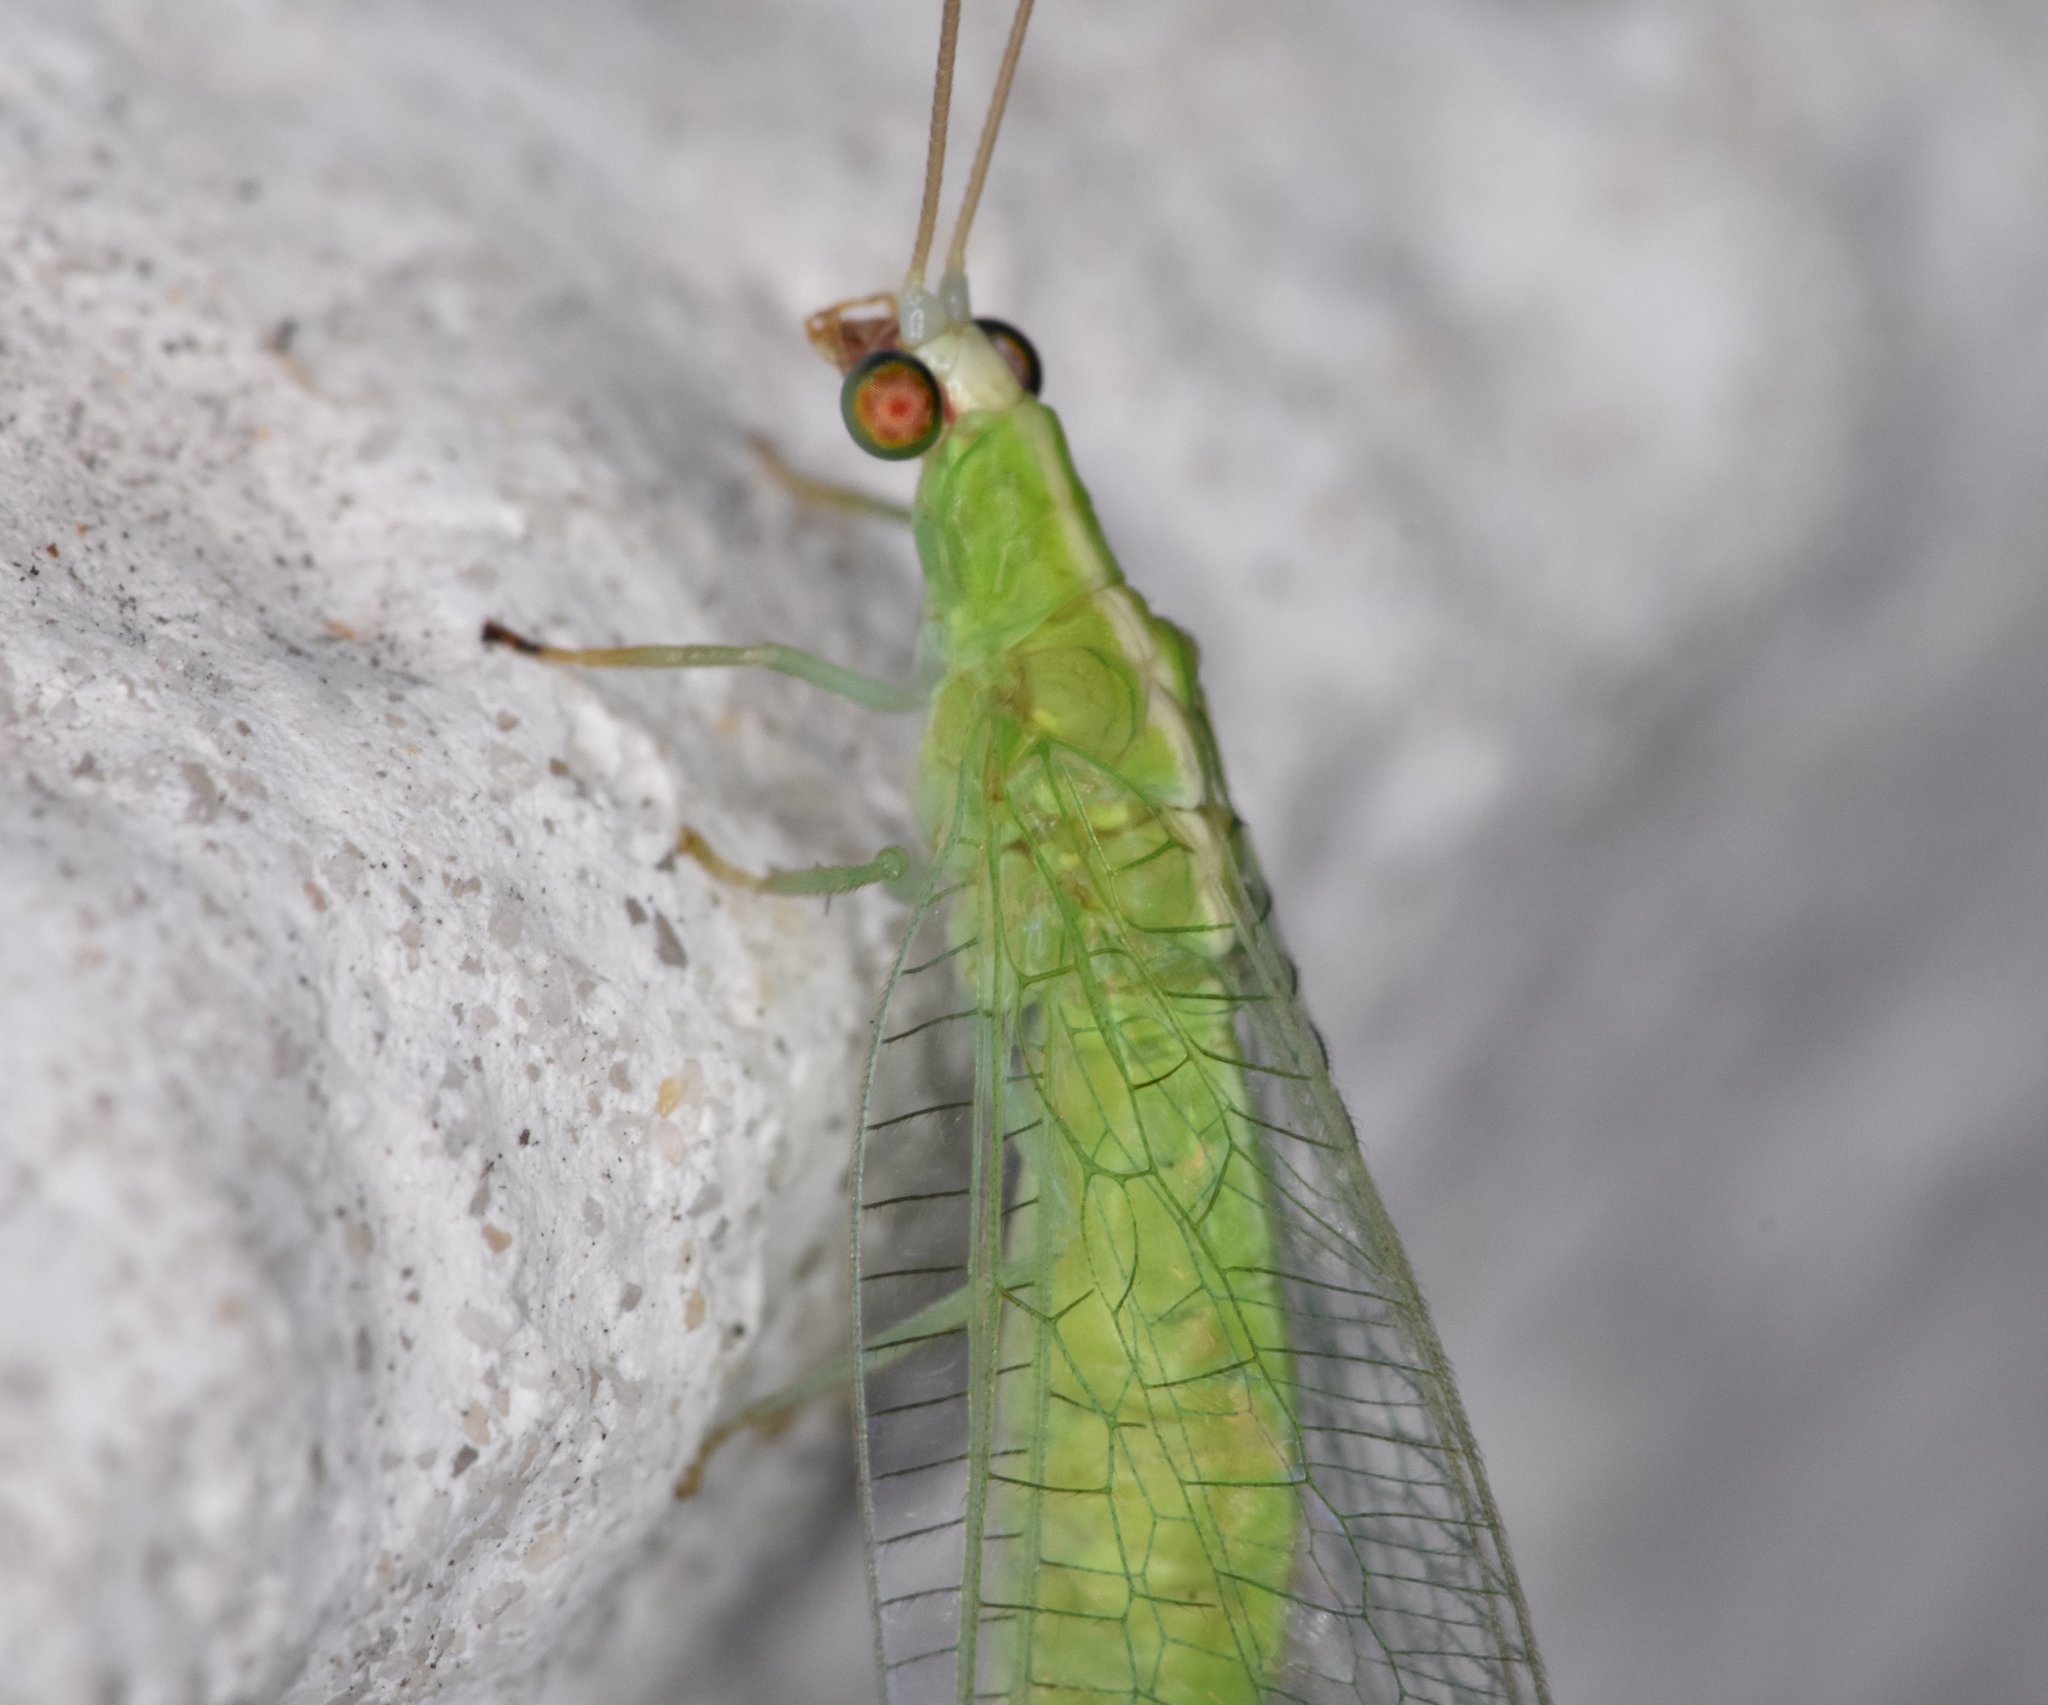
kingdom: Animalia
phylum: Arthropoda
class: Insecta
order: Neuroptera
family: Chrysopidae
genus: Chrysopodes
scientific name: Chrysopodes collaris
